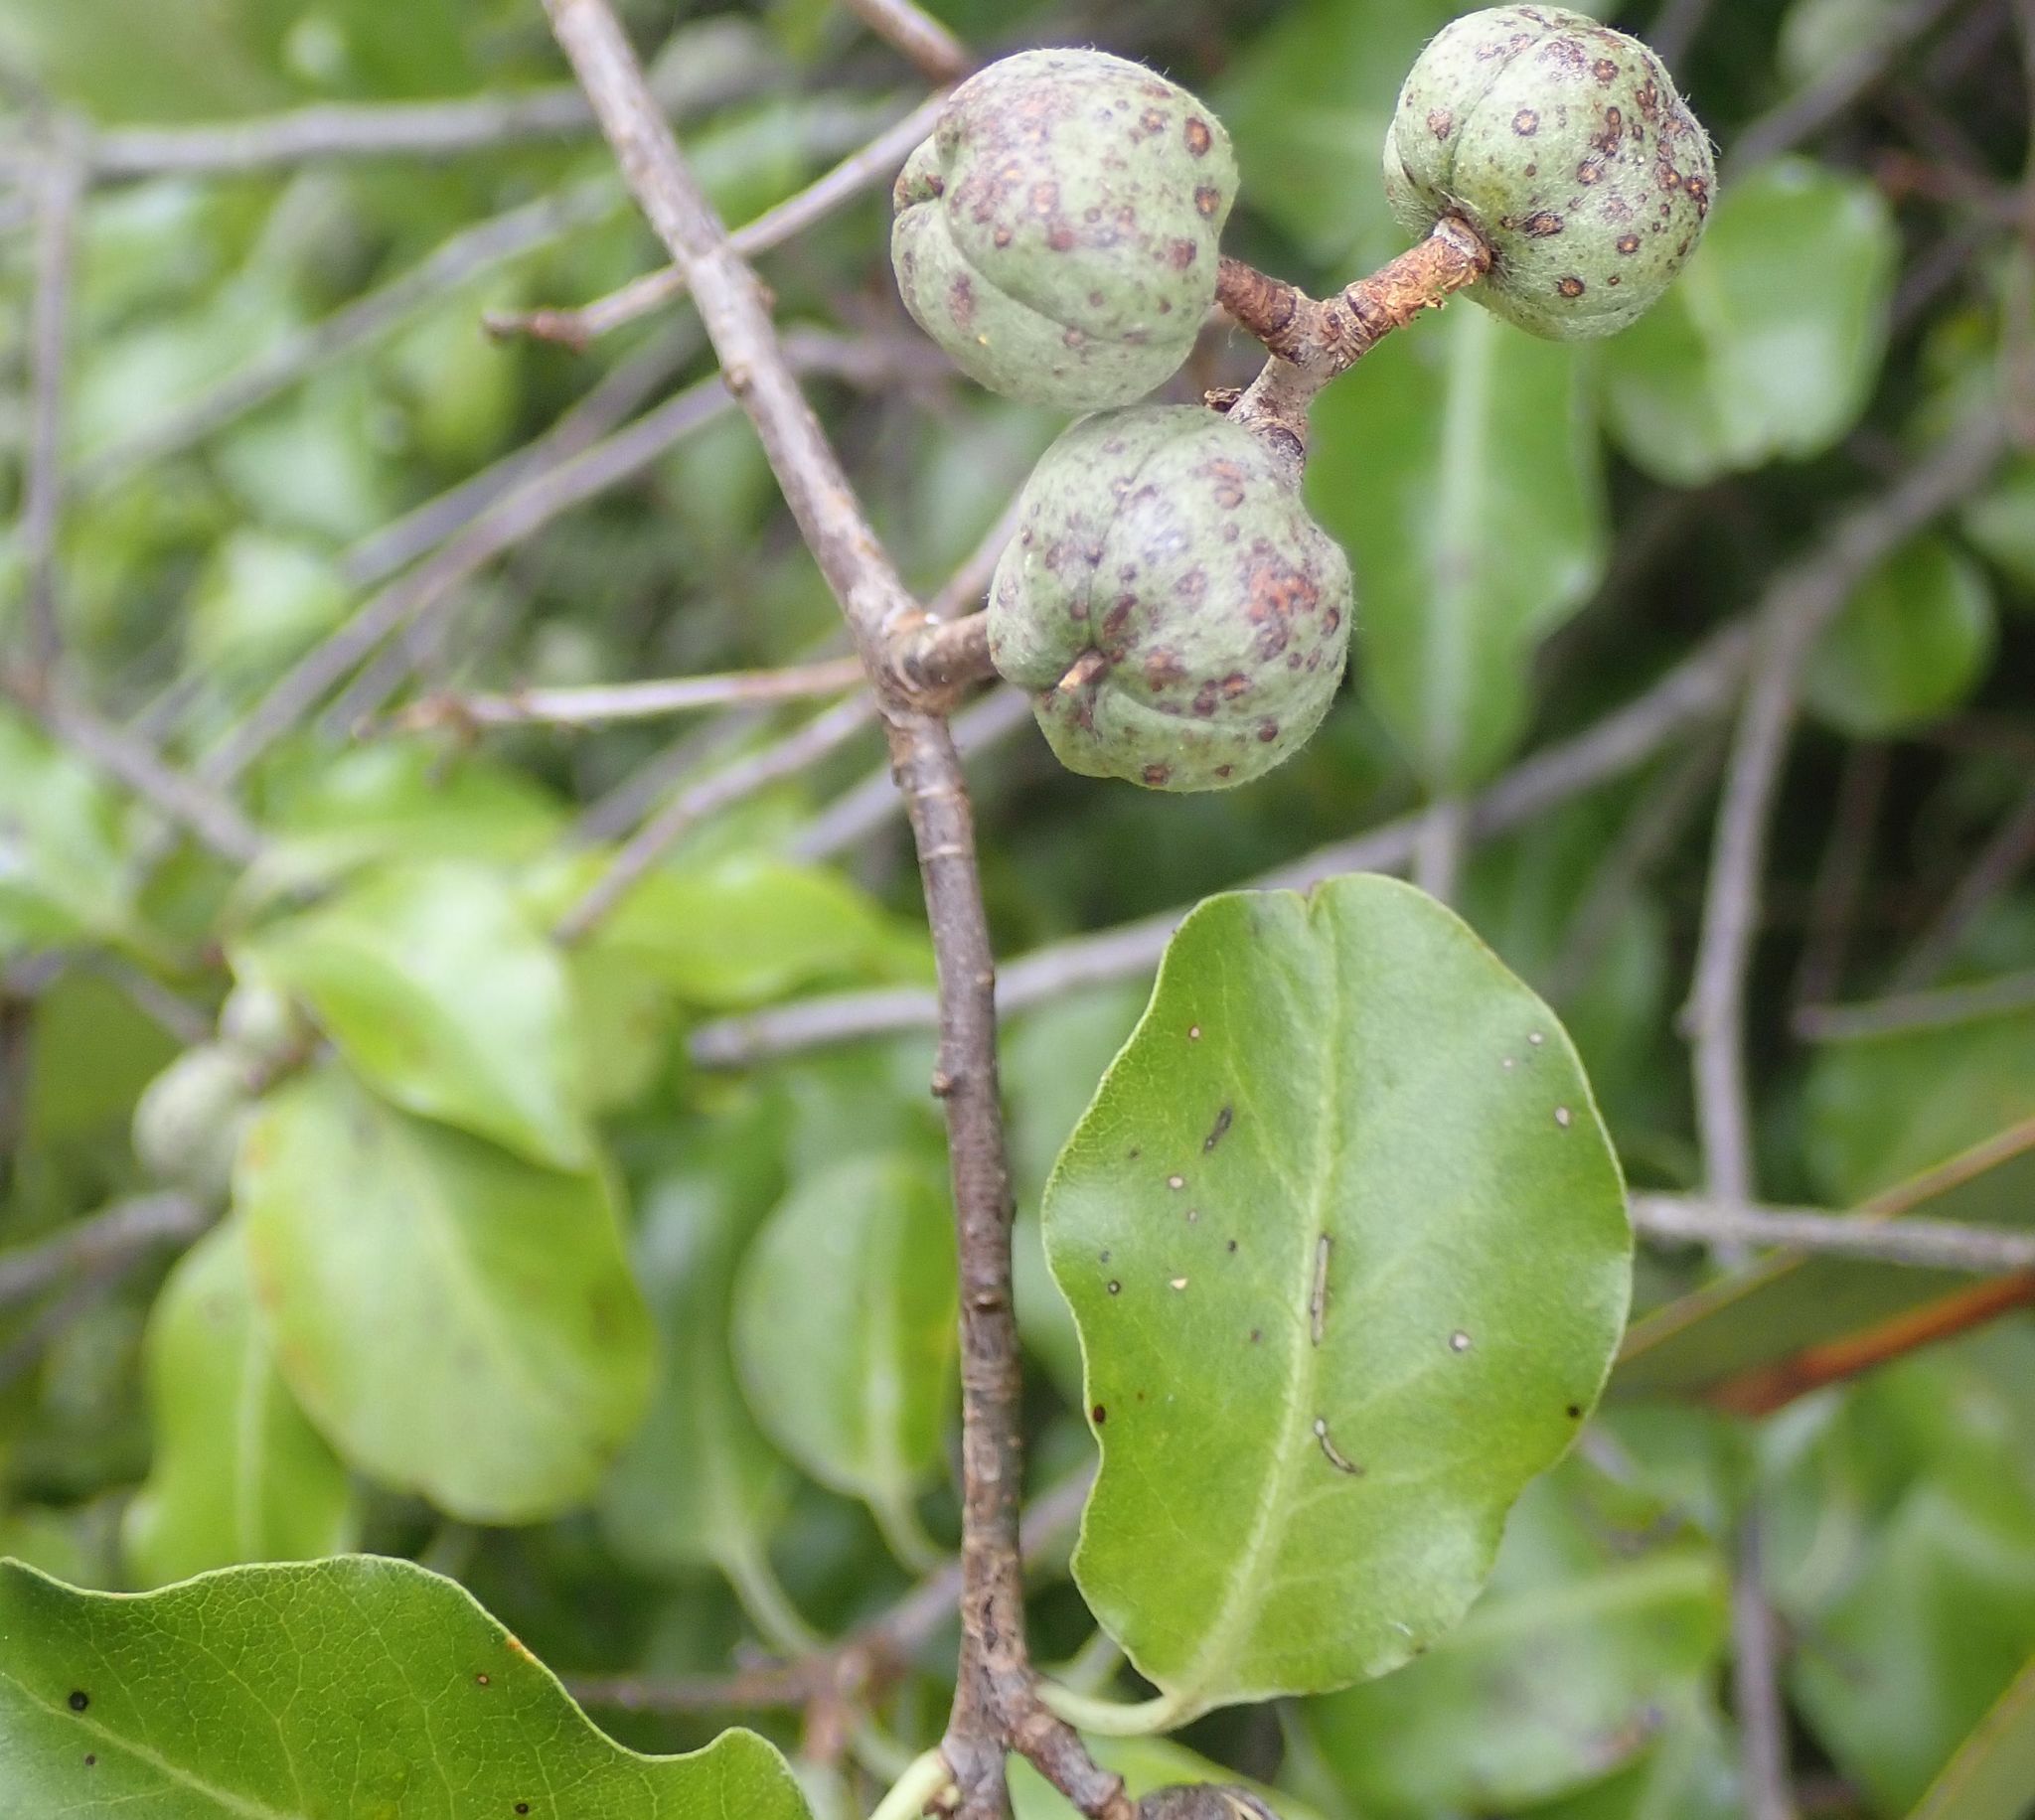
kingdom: Plantae
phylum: Tracheophyta
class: Magnoliopsida
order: Apiales
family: Pittosporaceae
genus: Pittosporum
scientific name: Pittosporum tenuifolium
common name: Kohuhu
